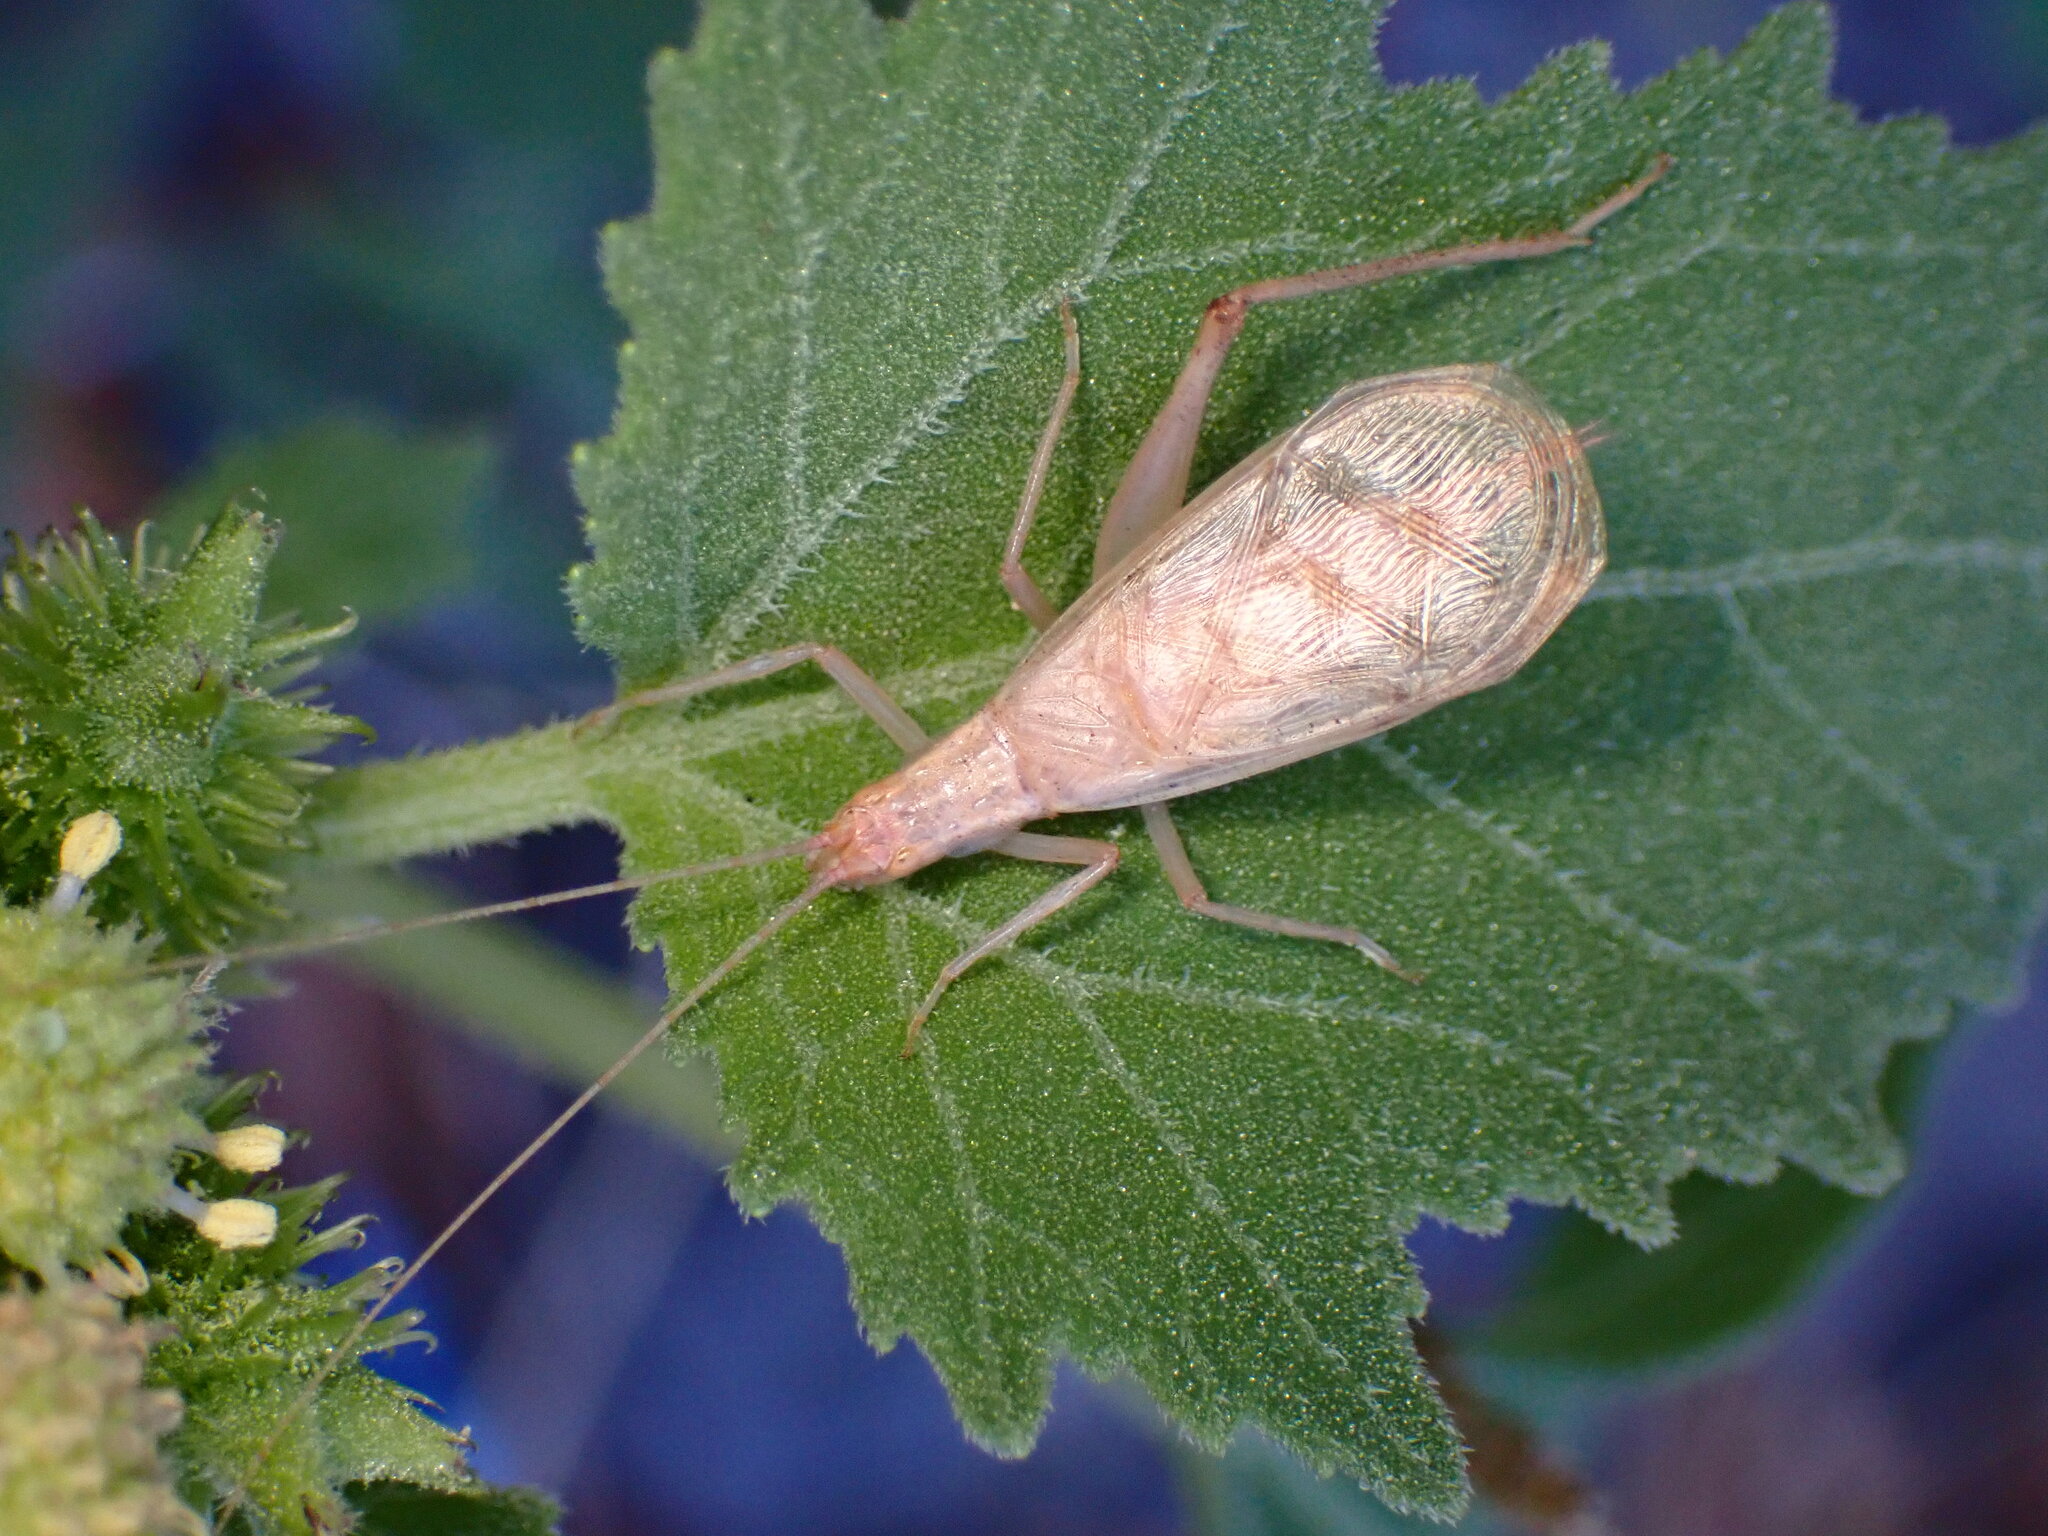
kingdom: Animalia
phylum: Arthropoda
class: Insecta
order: Orthoptera
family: Gryllidae
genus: Oecanthus
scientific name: Oecanthus californicus
